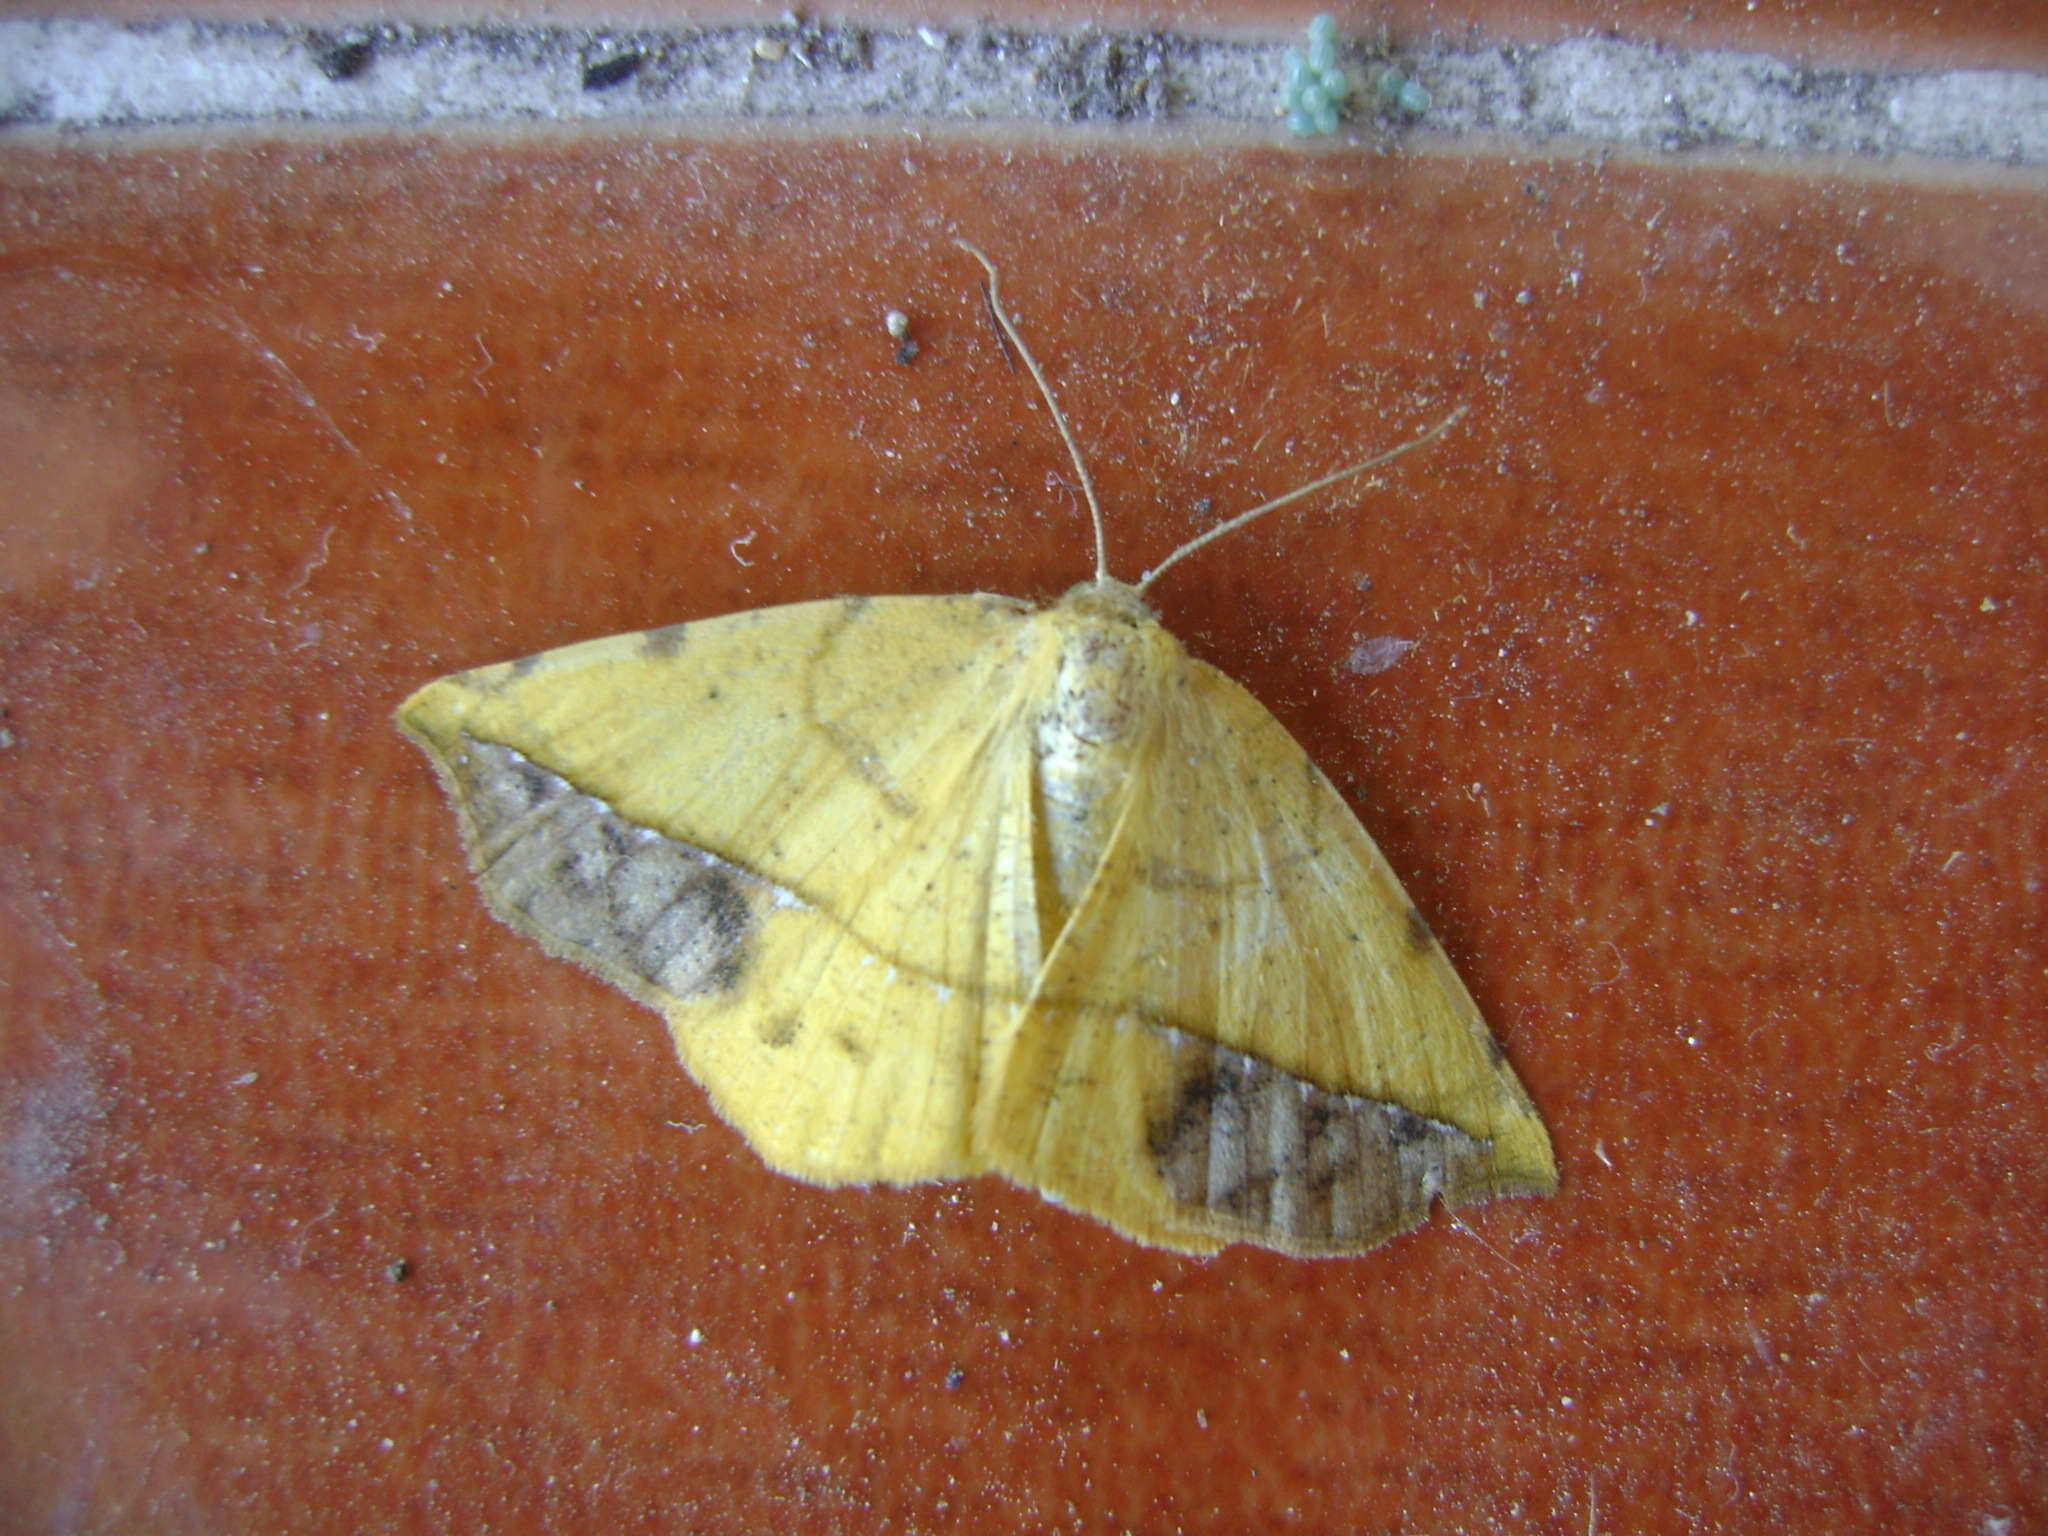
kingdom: Animalia
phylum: Arthropoda
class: Insecta
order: Lepidoptera
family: Geometridae
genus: Eusarca
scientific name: Eusarca fundaria
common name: Dark-edged eusarca moth
